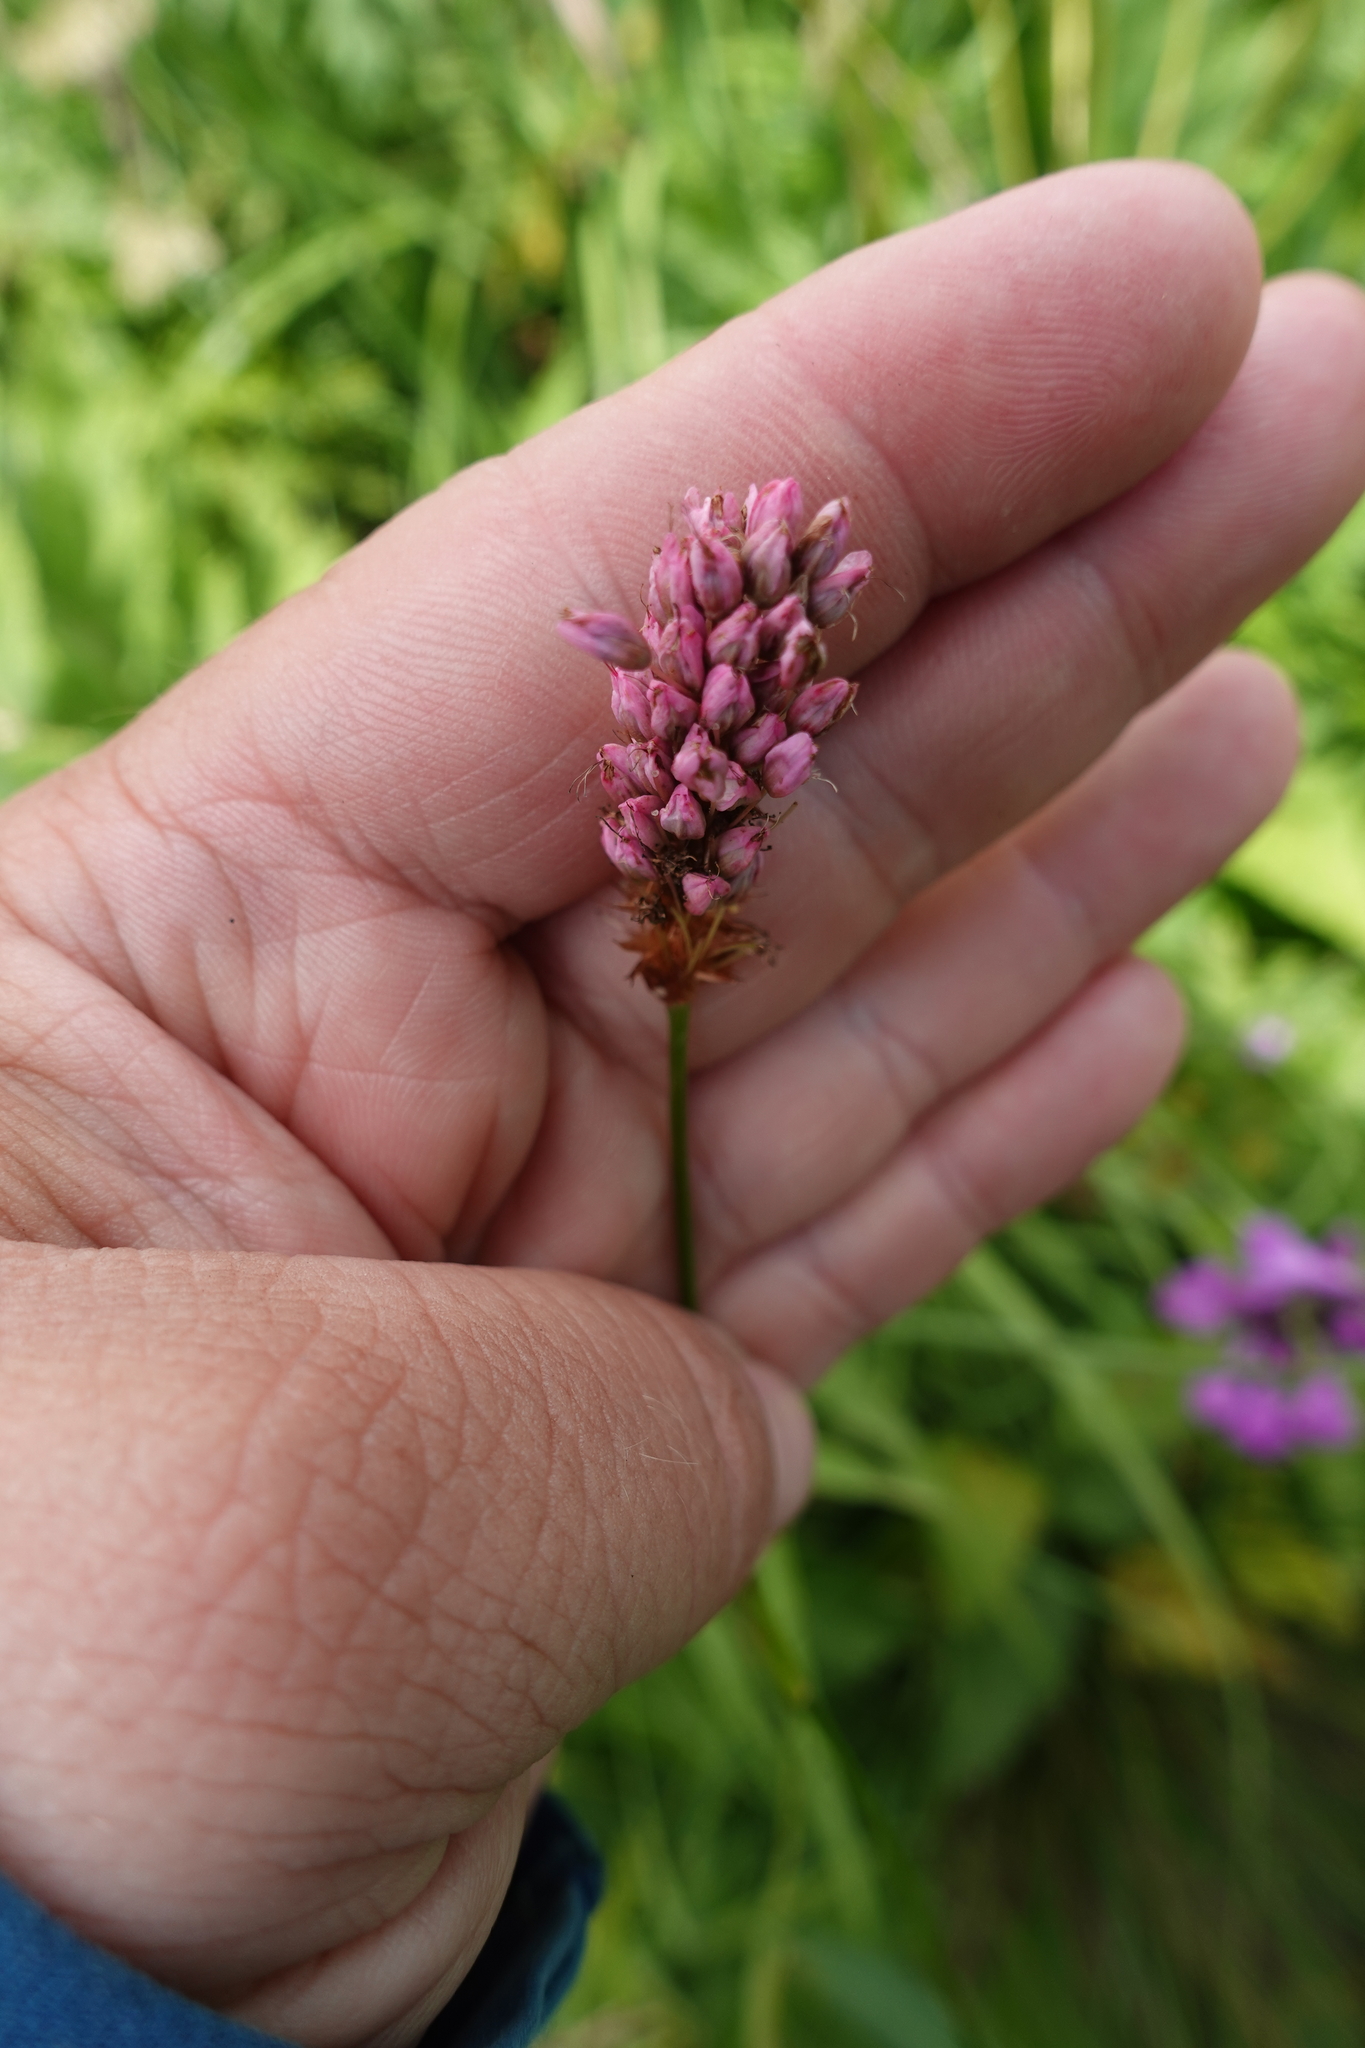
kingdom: Plantae
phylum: Tracheophyta
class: Magnoliopsida
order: Caryophyllales
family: Polygonaceae
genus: Bistorta
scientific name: Bistorta carnea
